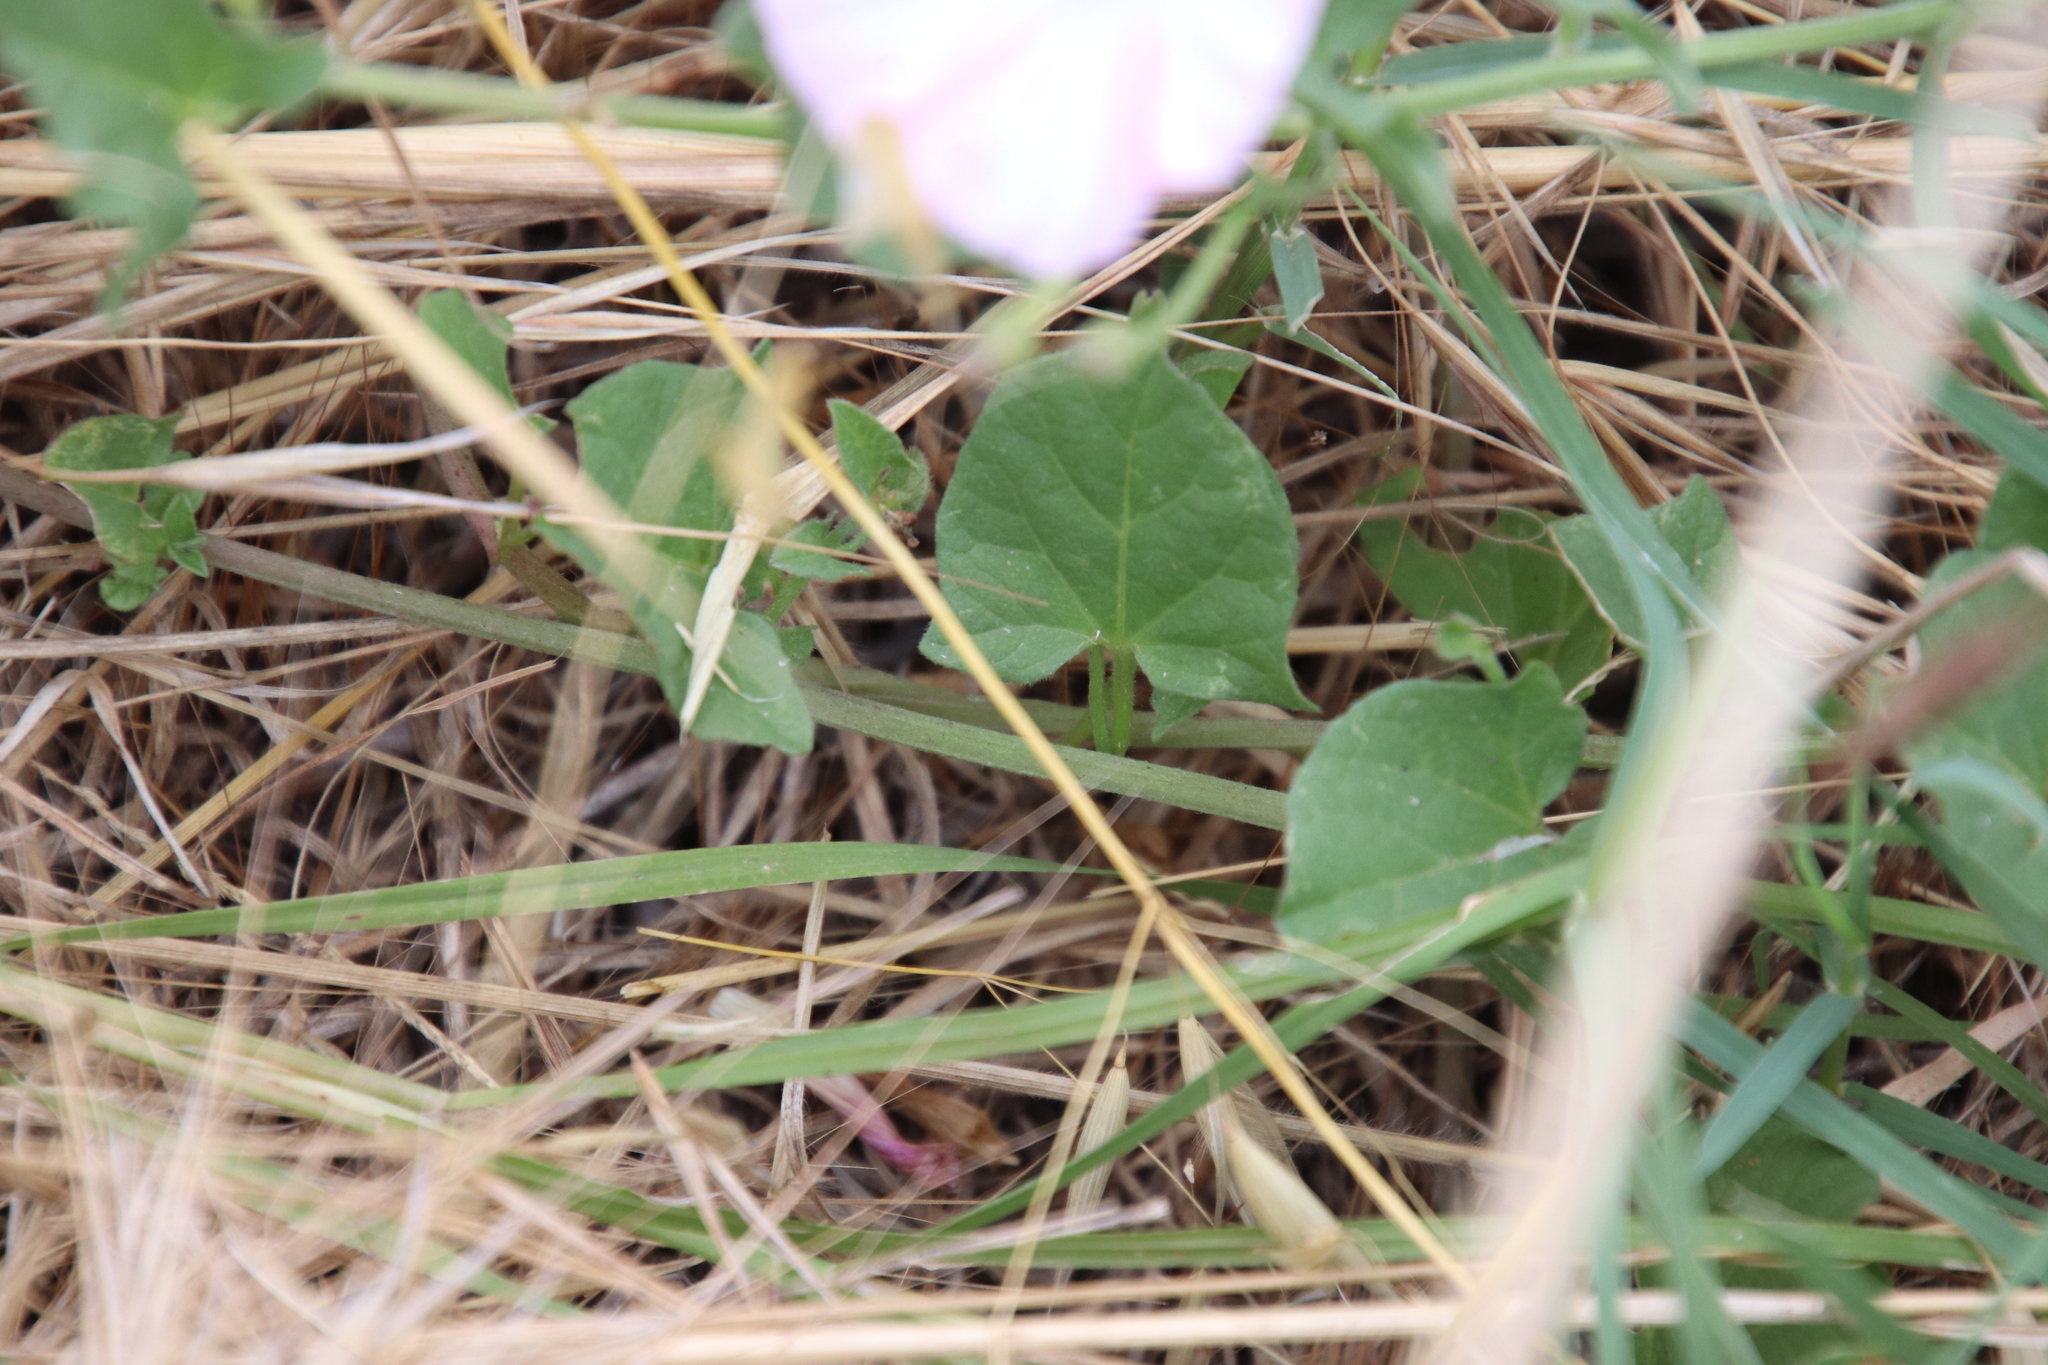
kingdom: Plantae
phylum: Tracheophyta
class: Magnoliopsida
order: Solanales
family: Convolvulaceae
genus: Convolvulus
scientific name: Convolvulus arvensis
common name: Field bindweed
